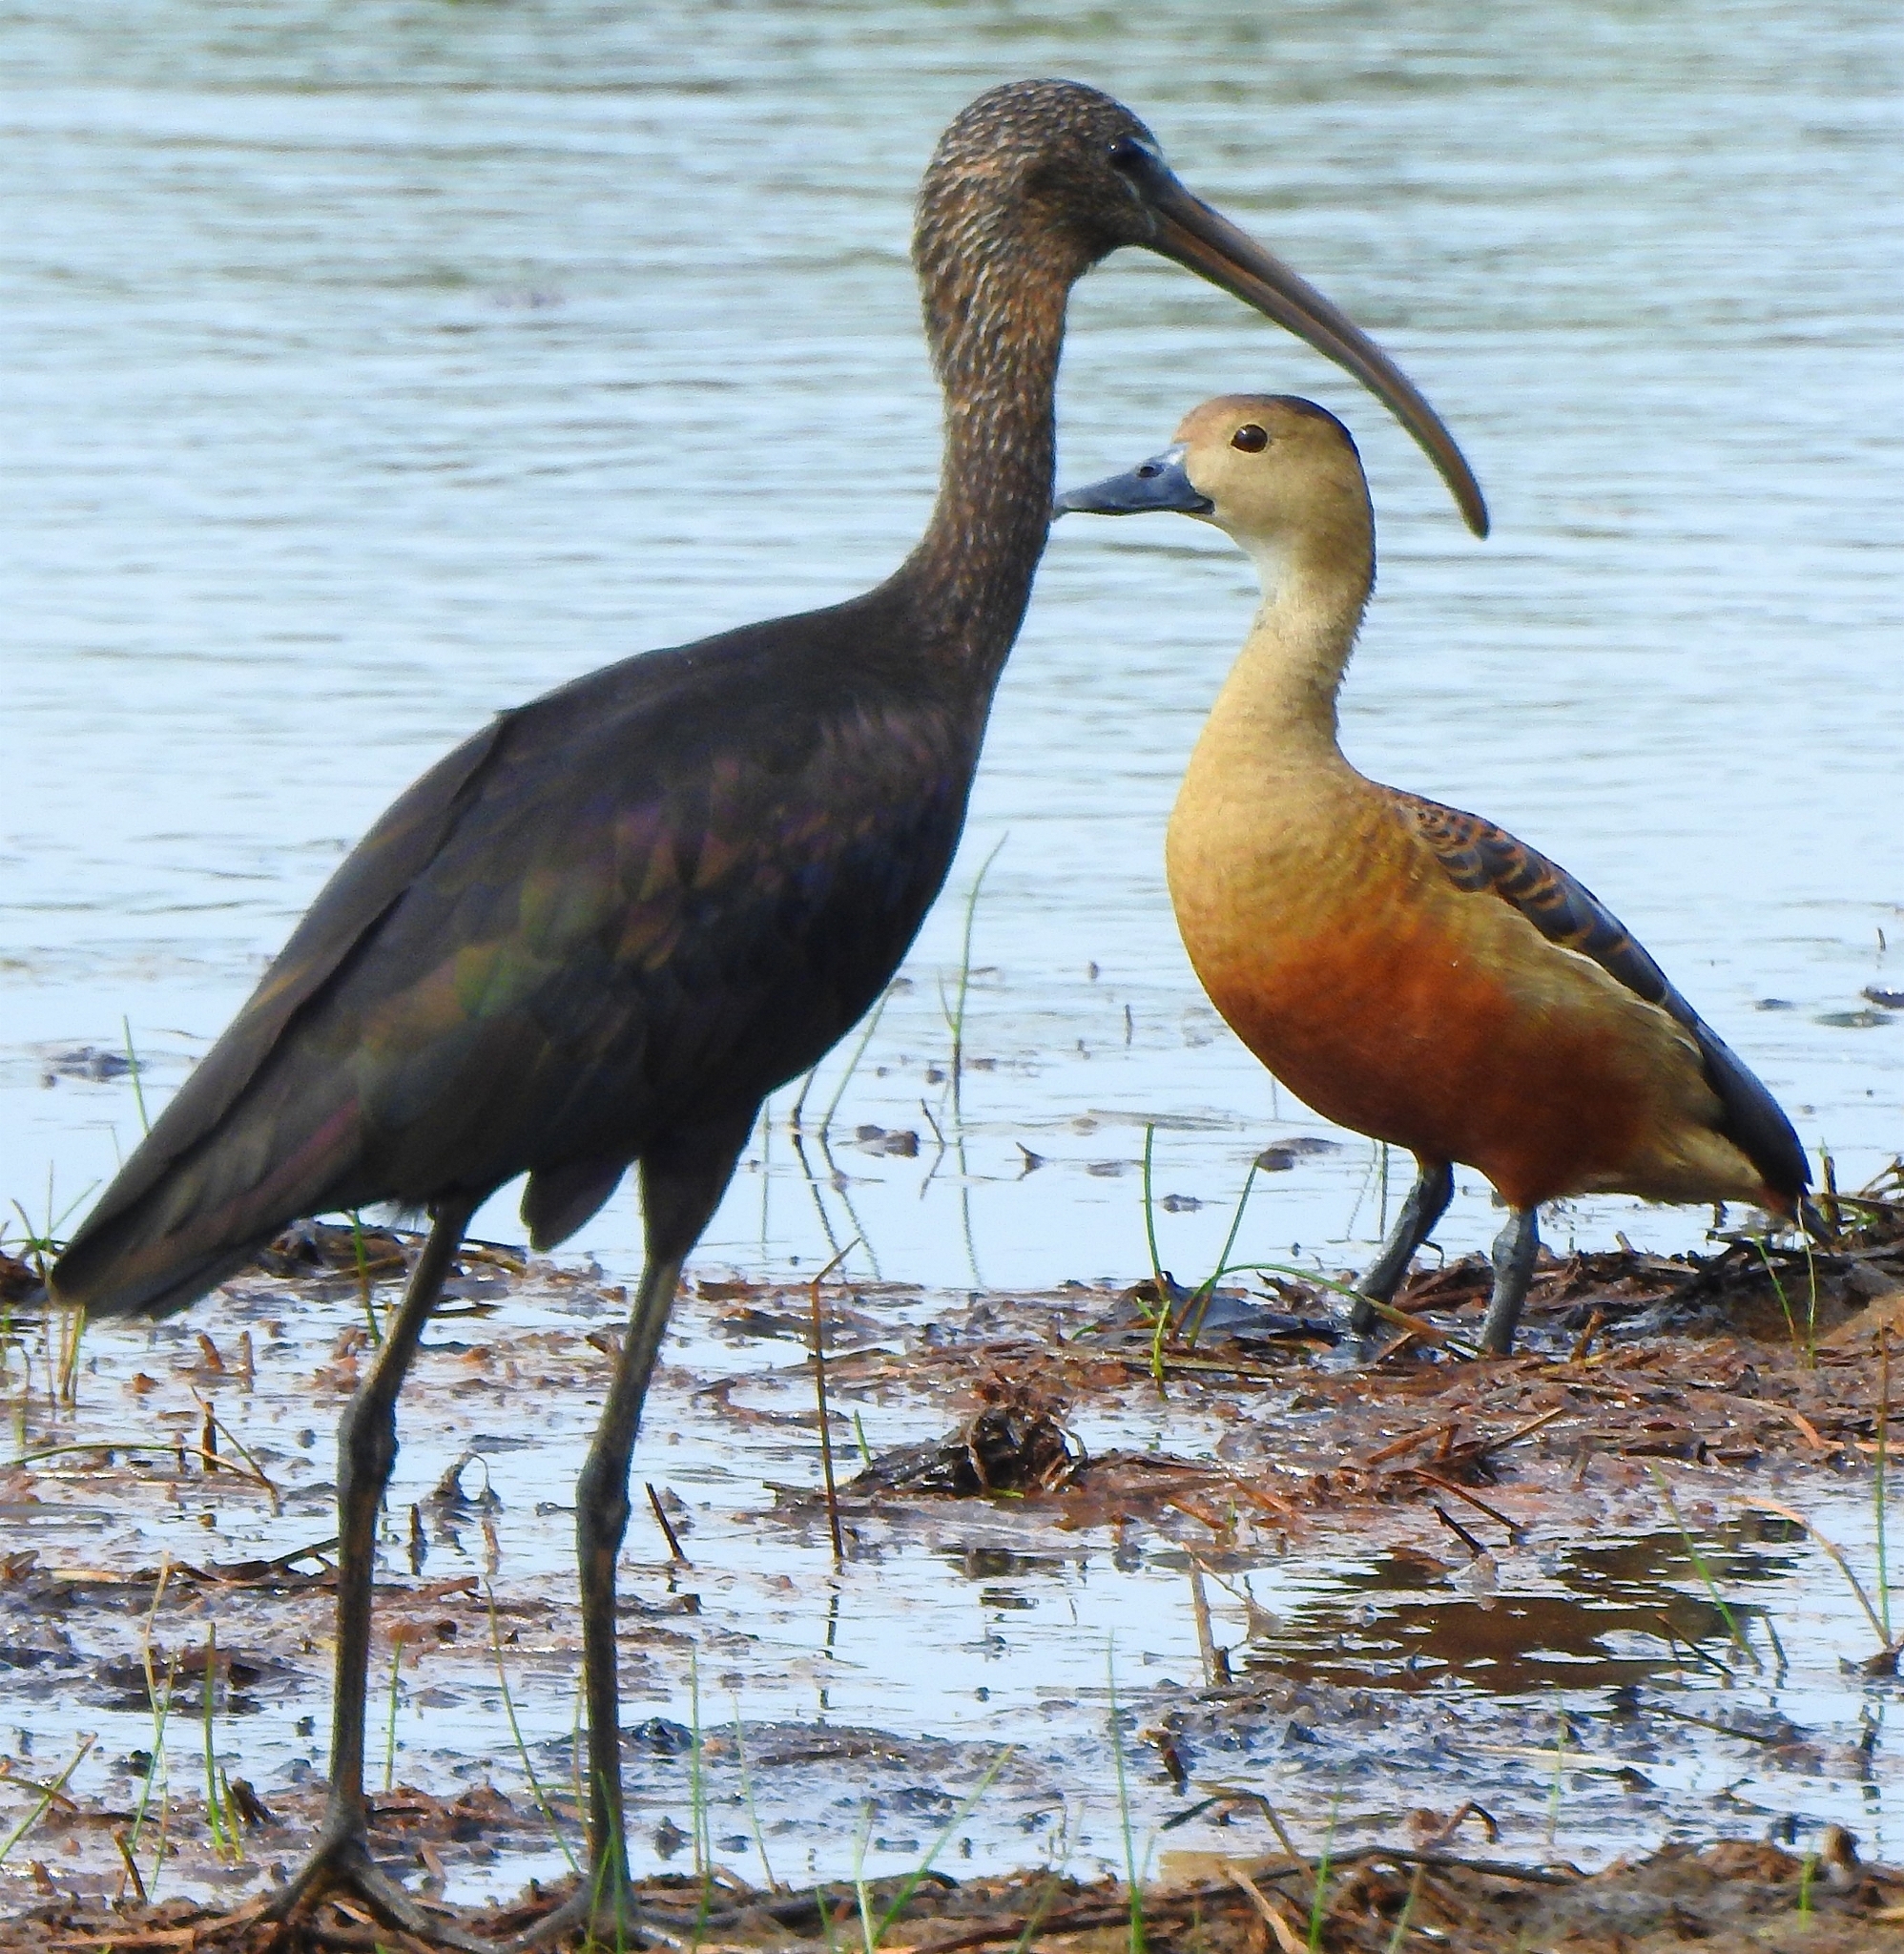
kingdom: Animalia
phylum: Chordata
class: Aves
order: Anseriformes
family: Anatidae
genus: Dendrocygna
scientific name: Dendrocygna javanica
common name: Lesser whistling-duck
